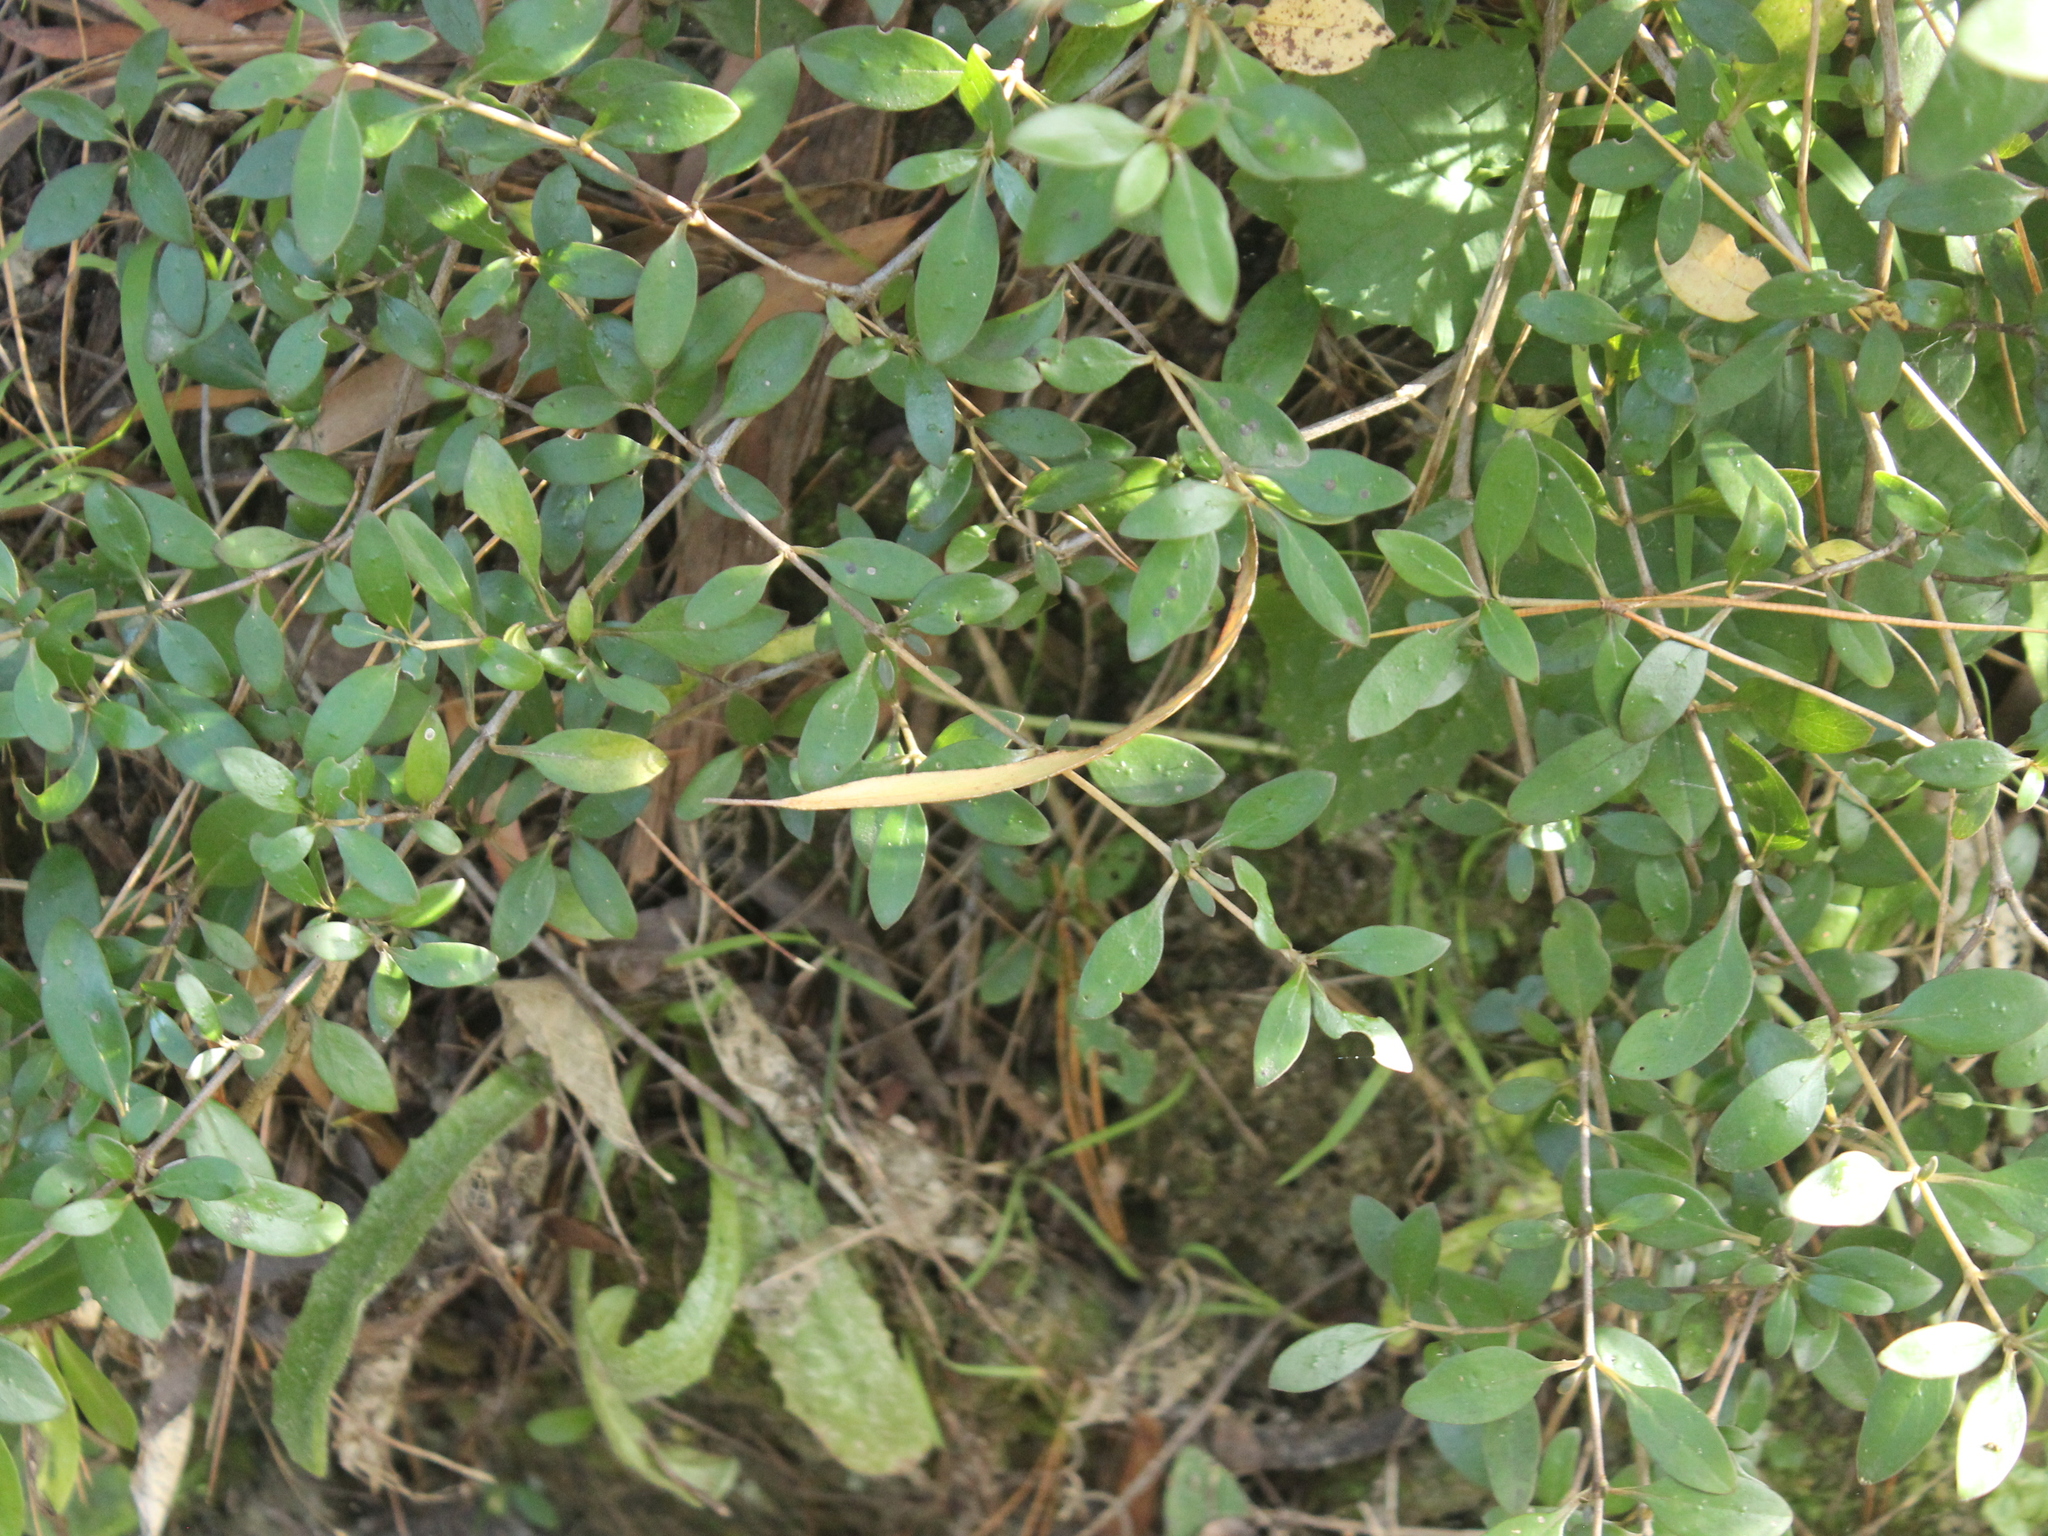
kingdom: Plantae
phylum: Tracheophyta
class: Magnoliopsida
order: Gentianales
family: Rubiaceae
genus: Coprosma
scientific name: Coprosma cunninghamii
